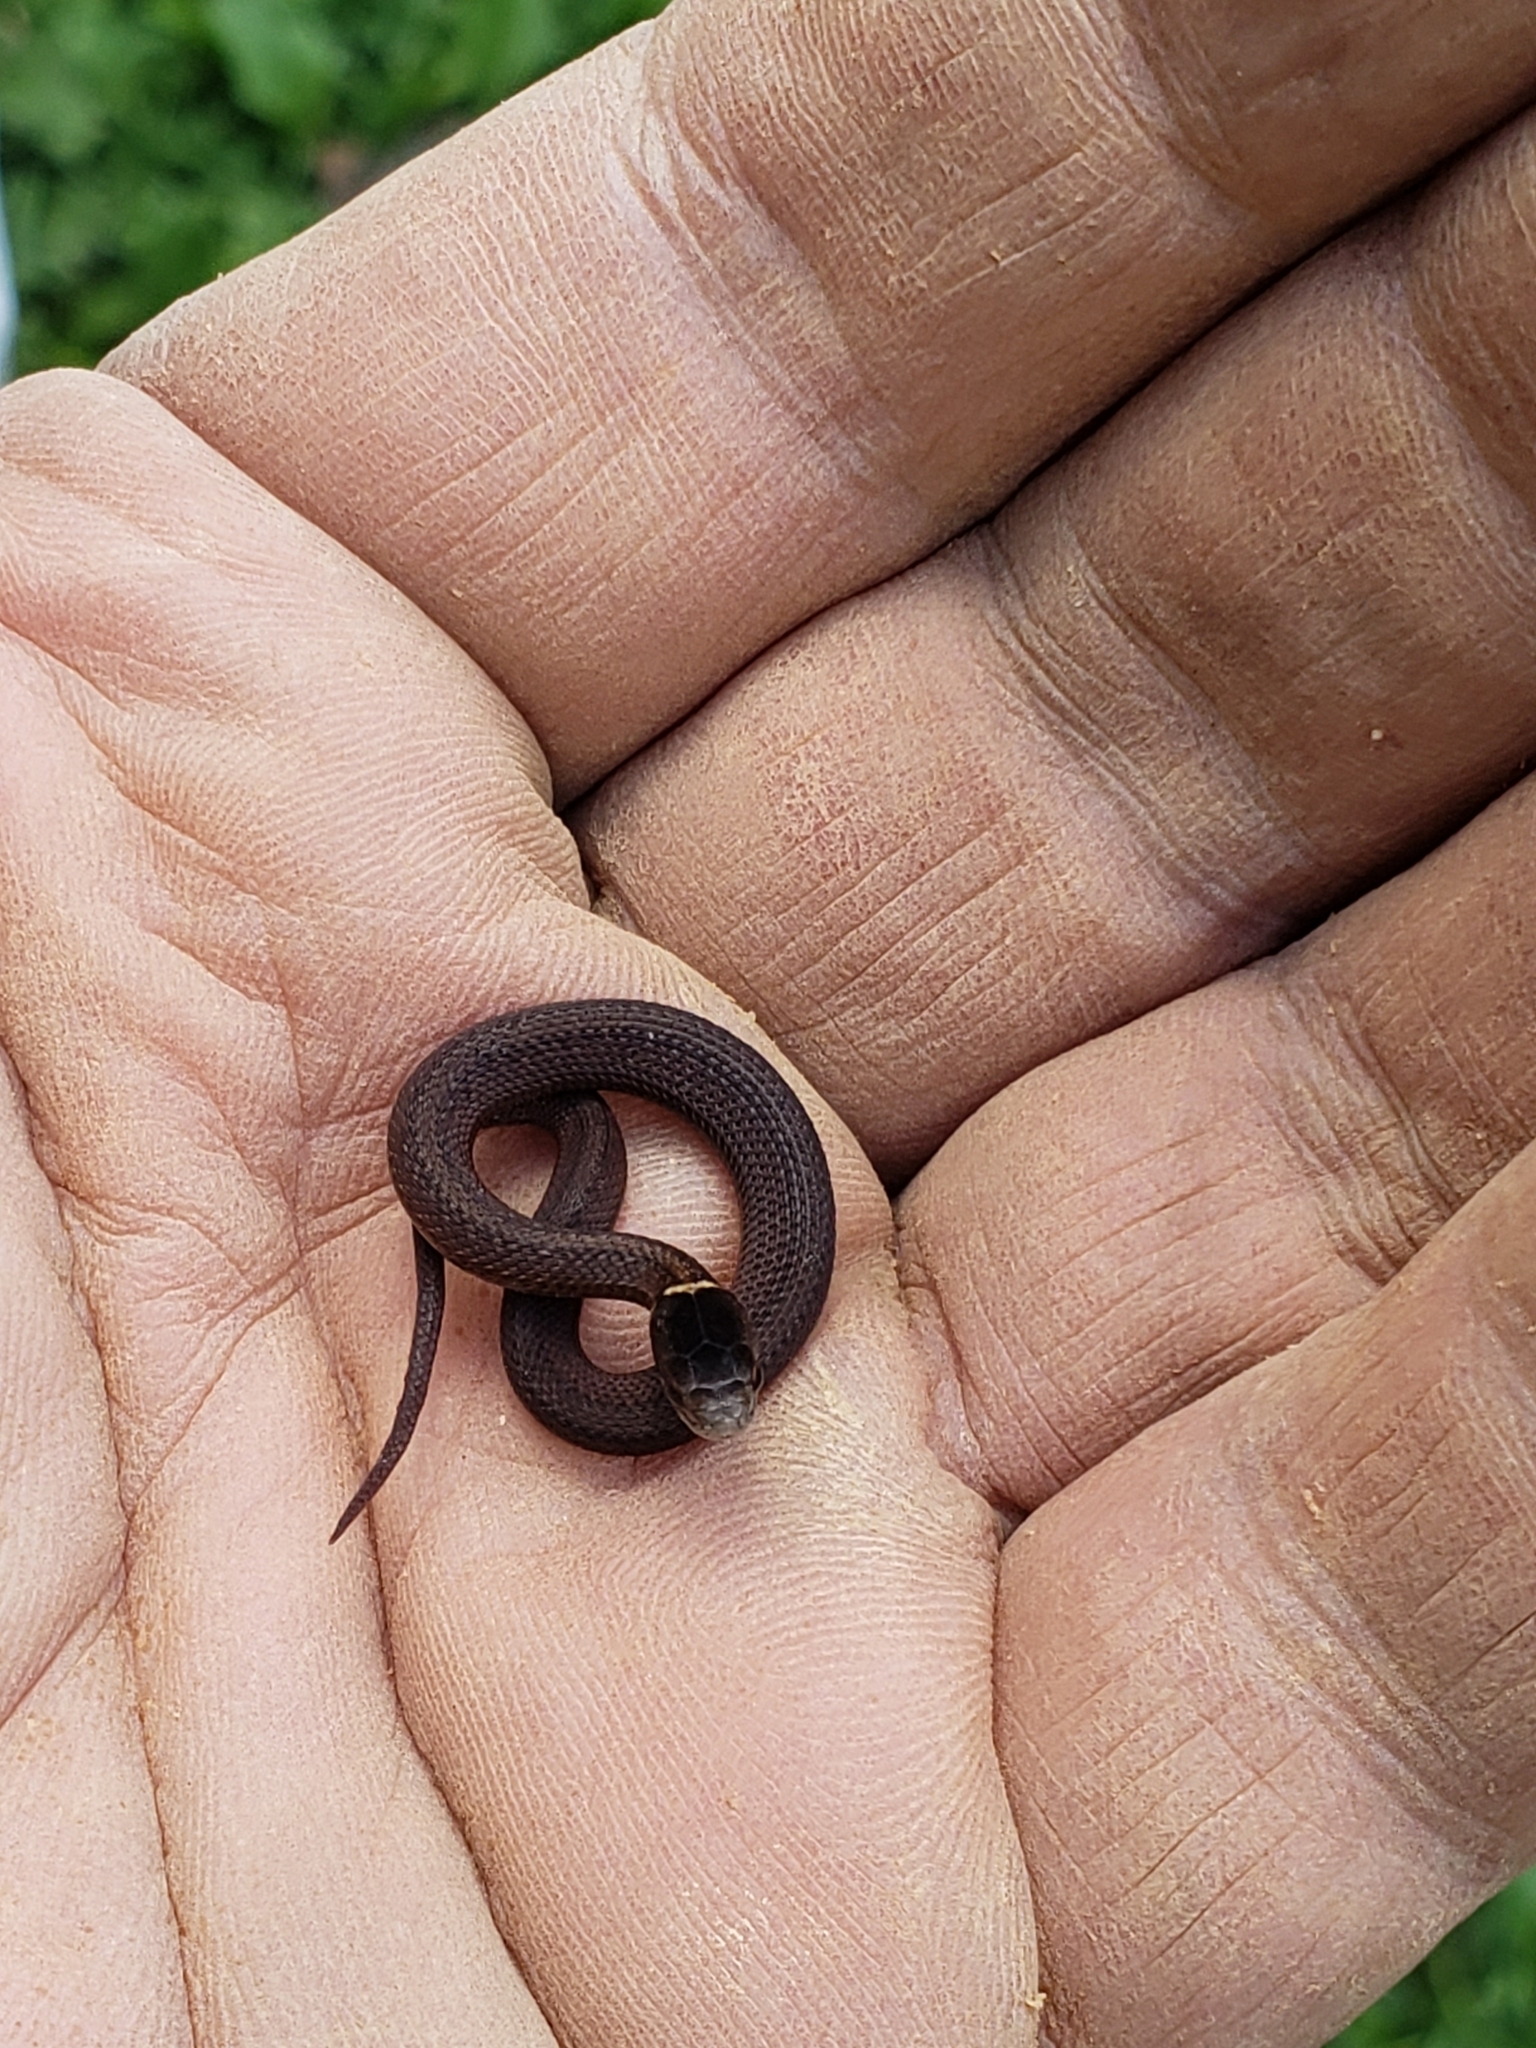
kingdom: Animalia
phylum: Chordata
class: Squamata
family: Colubridae
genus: Diadophis
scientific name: Diadophis punctatus
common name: Ringneck snake
